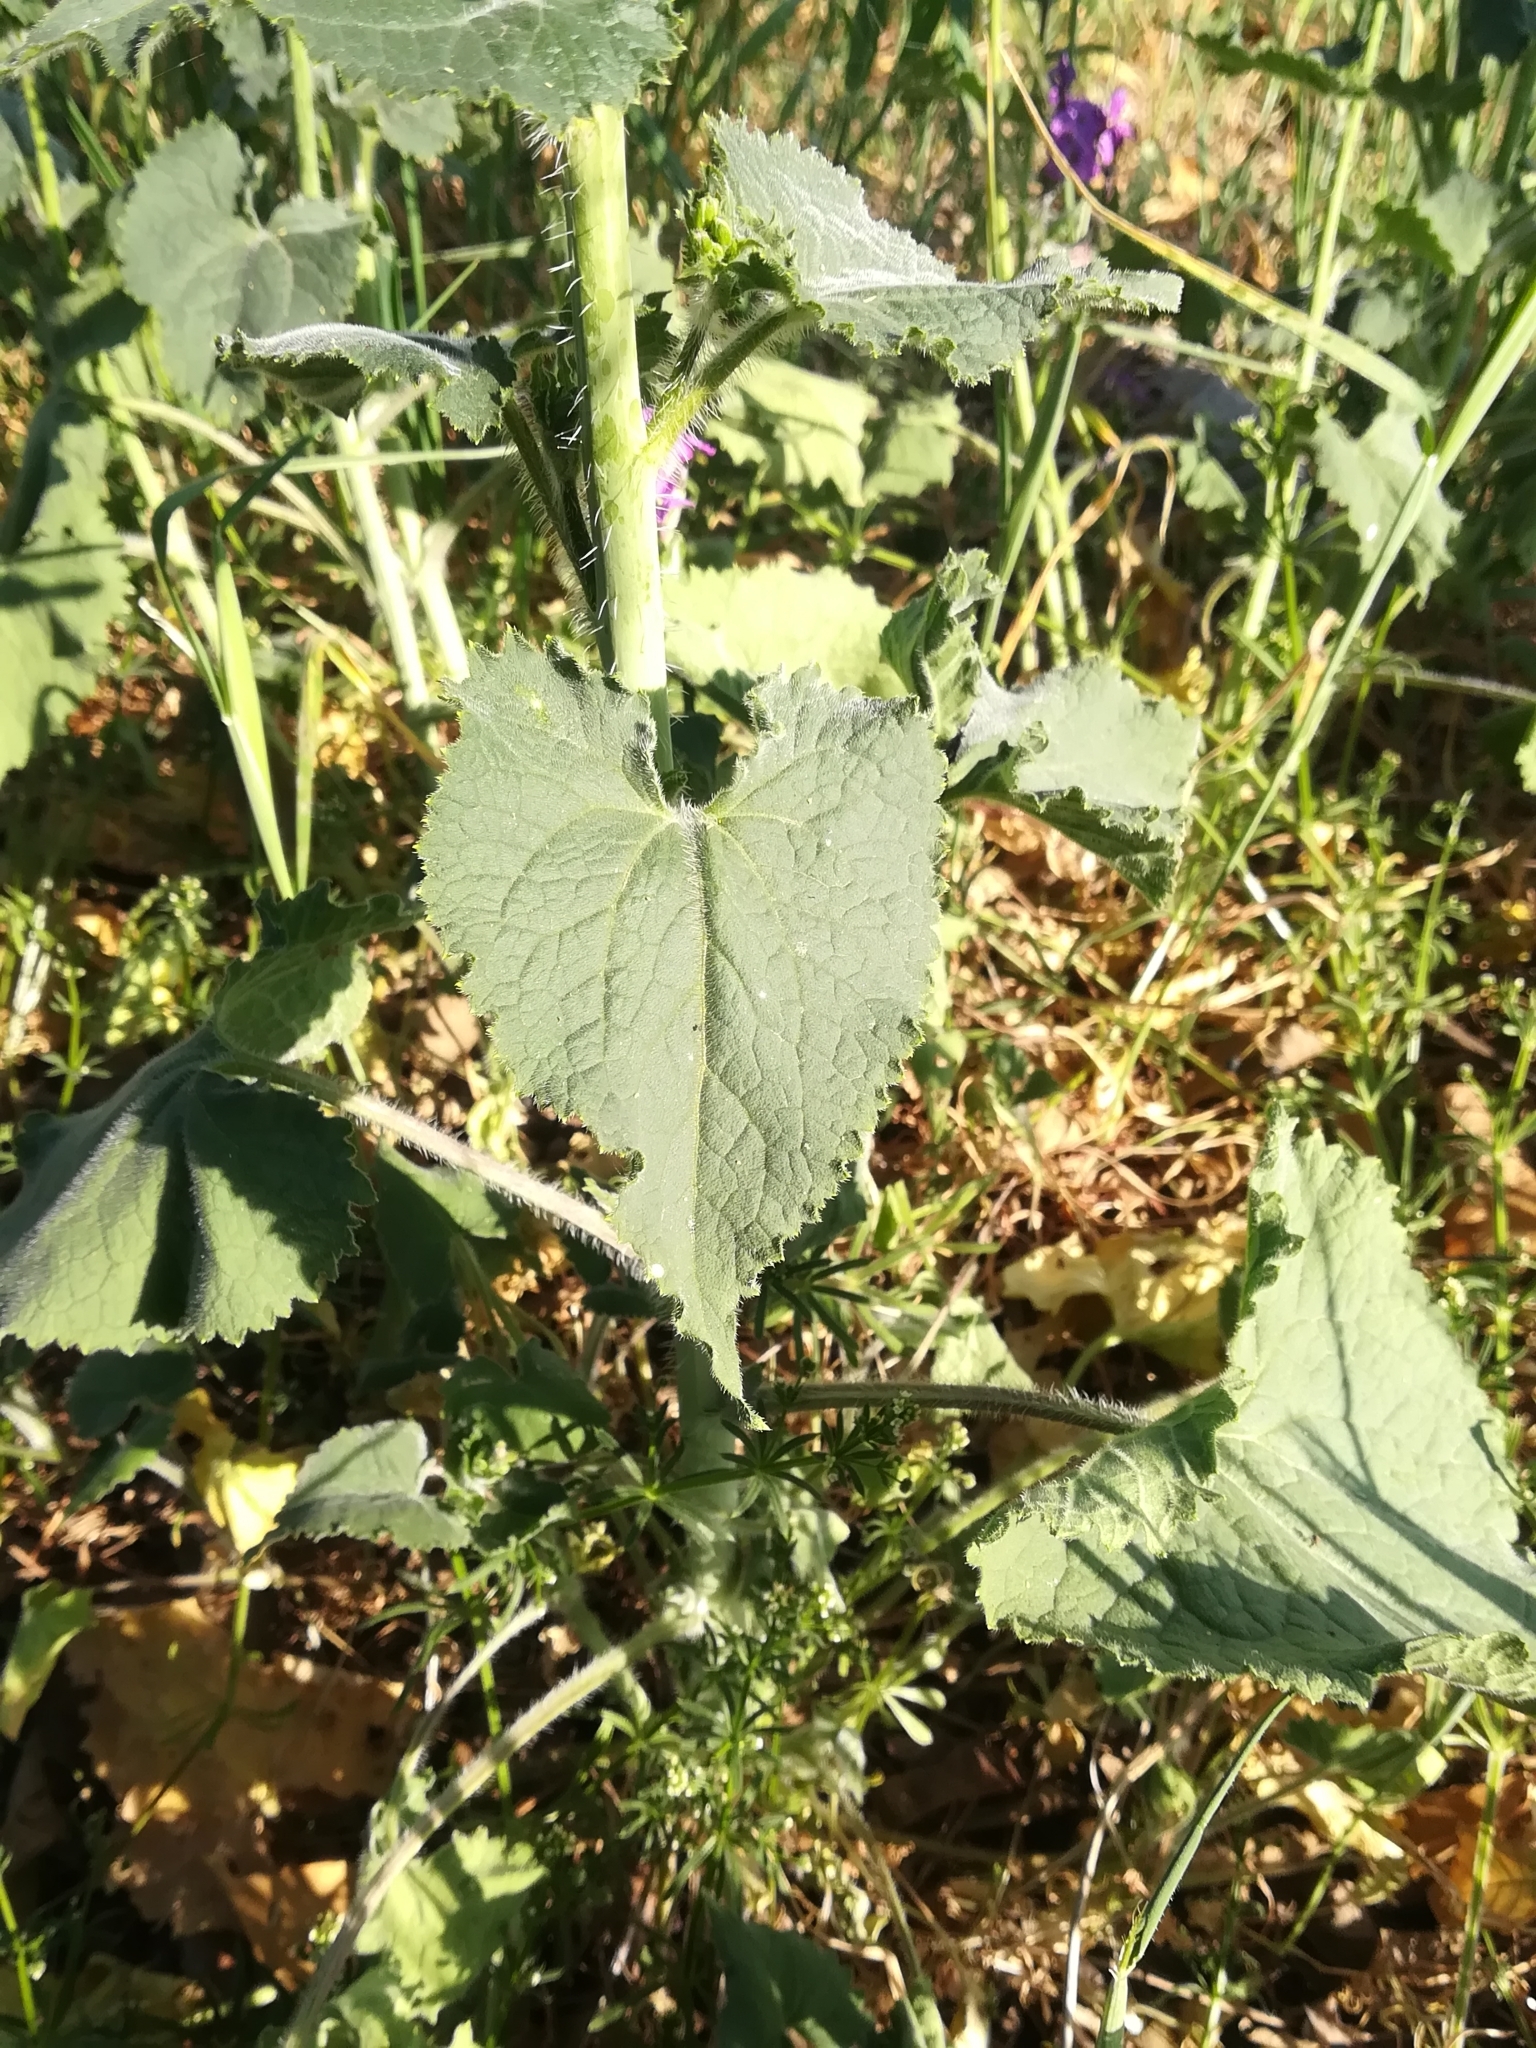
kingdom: Plantae
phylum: Tracheophyta
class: Magnoliopsida
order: Brassicales
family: Brassicaceae
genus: Lunaria
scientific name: Lunaria annua
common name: Honesty
